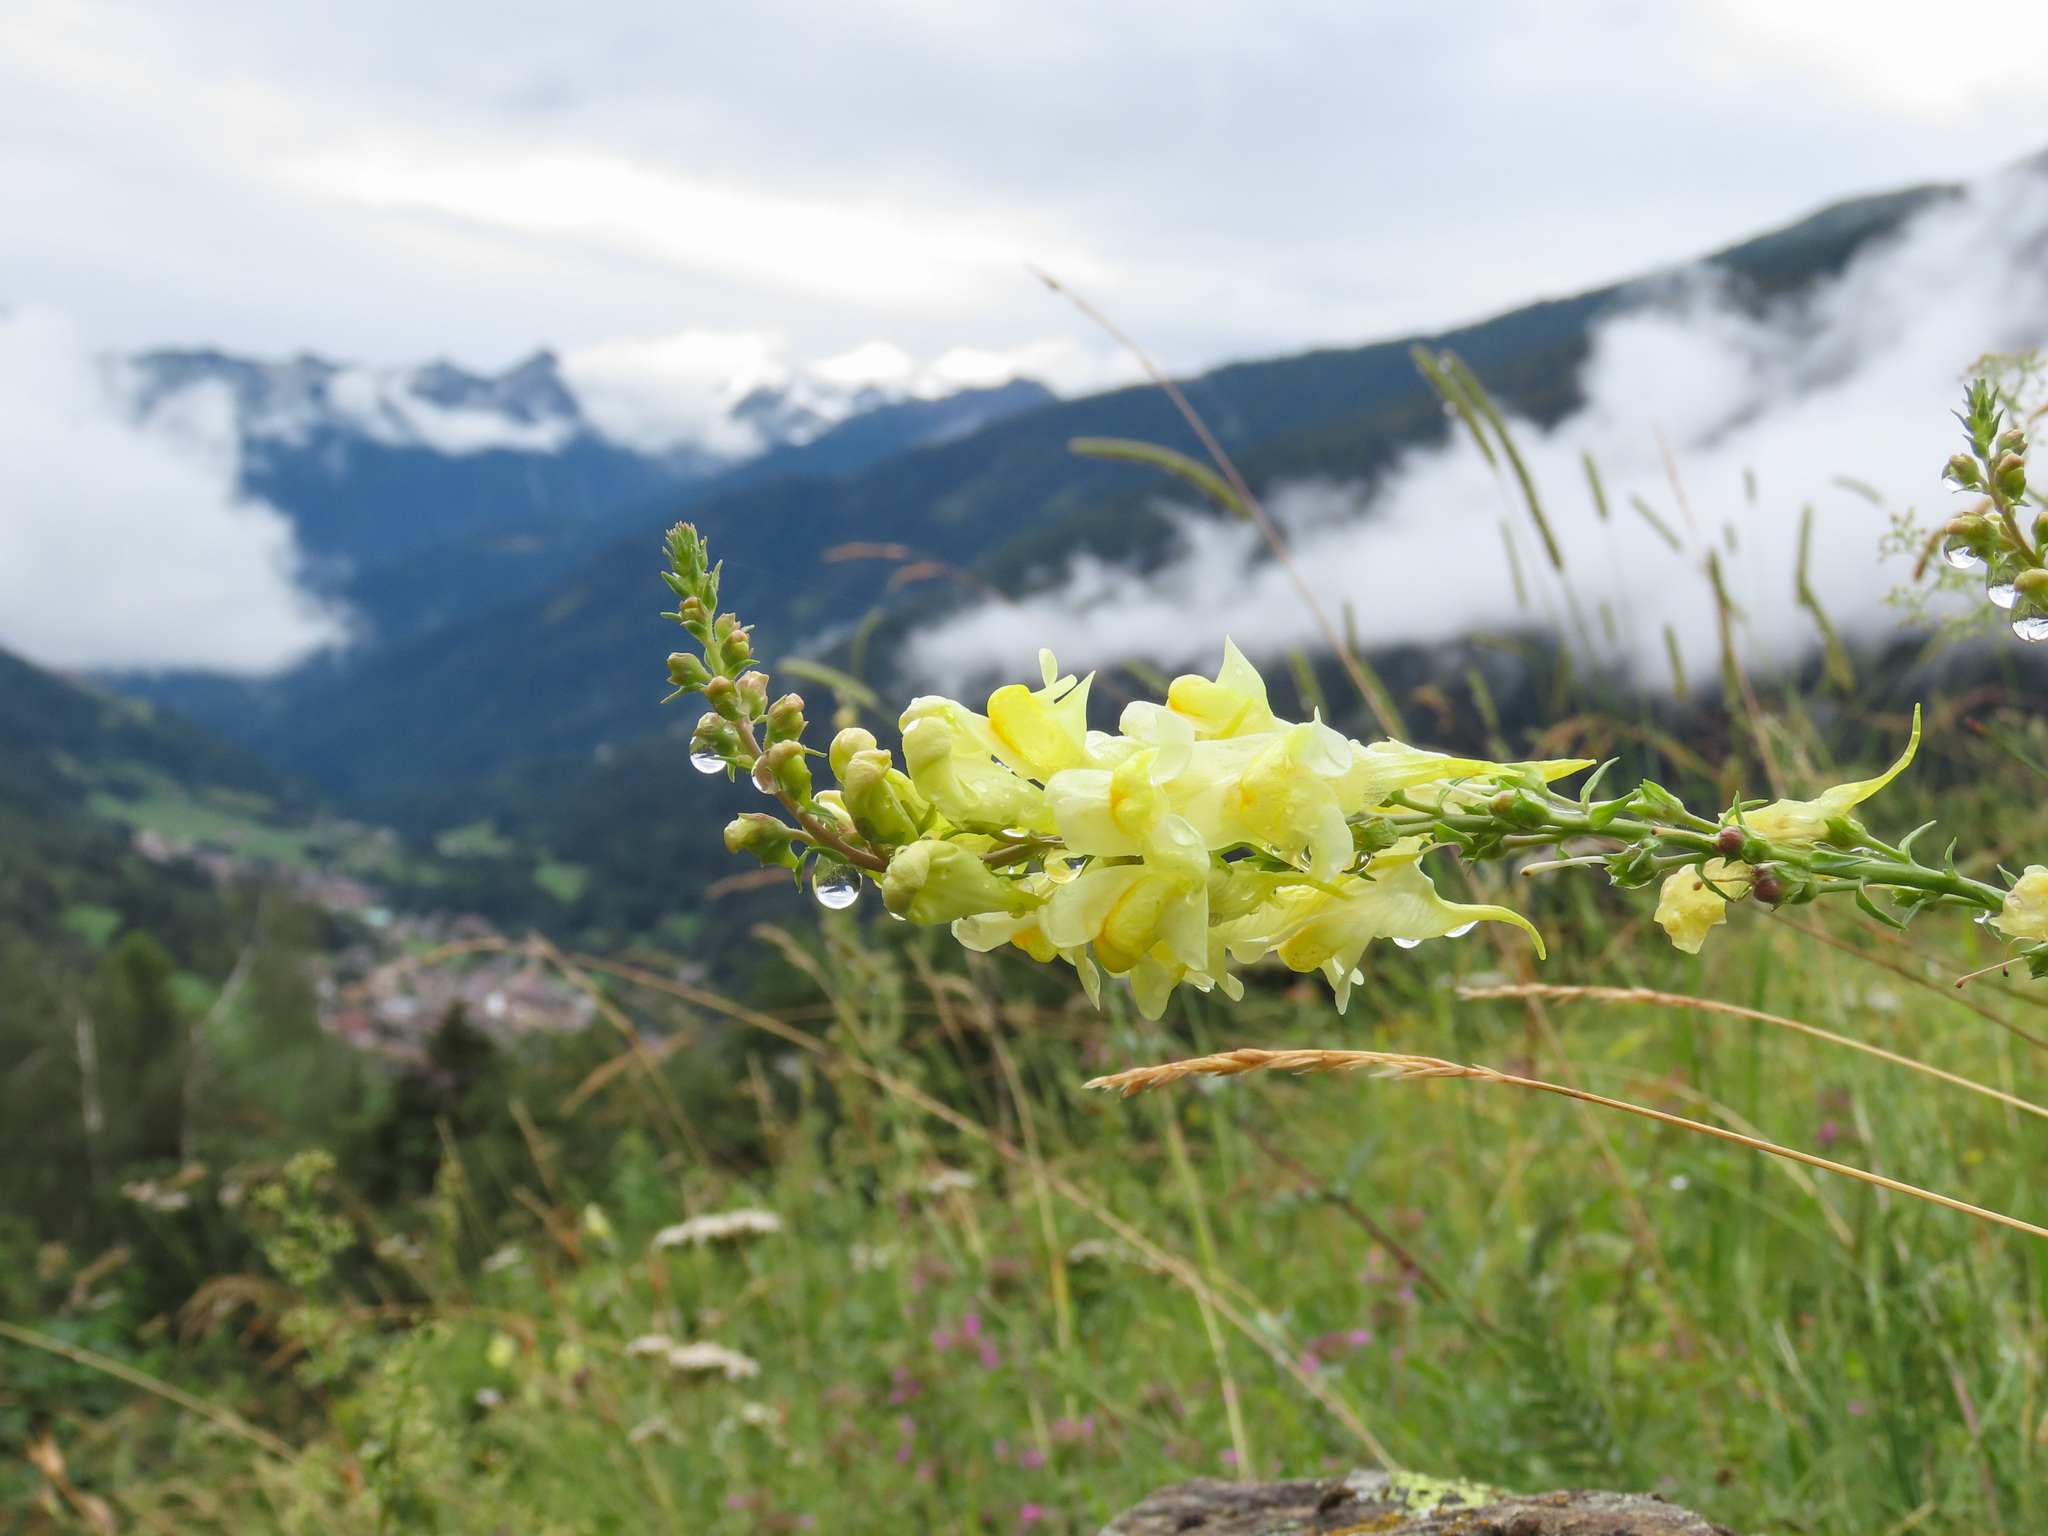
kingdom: Plantae
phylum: Tracheophyta
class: Magnoliopsida
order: Lamiales
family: Plantaginaceae
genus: Linaria
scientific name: Linaria vulgaris
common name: Butter and eggs
